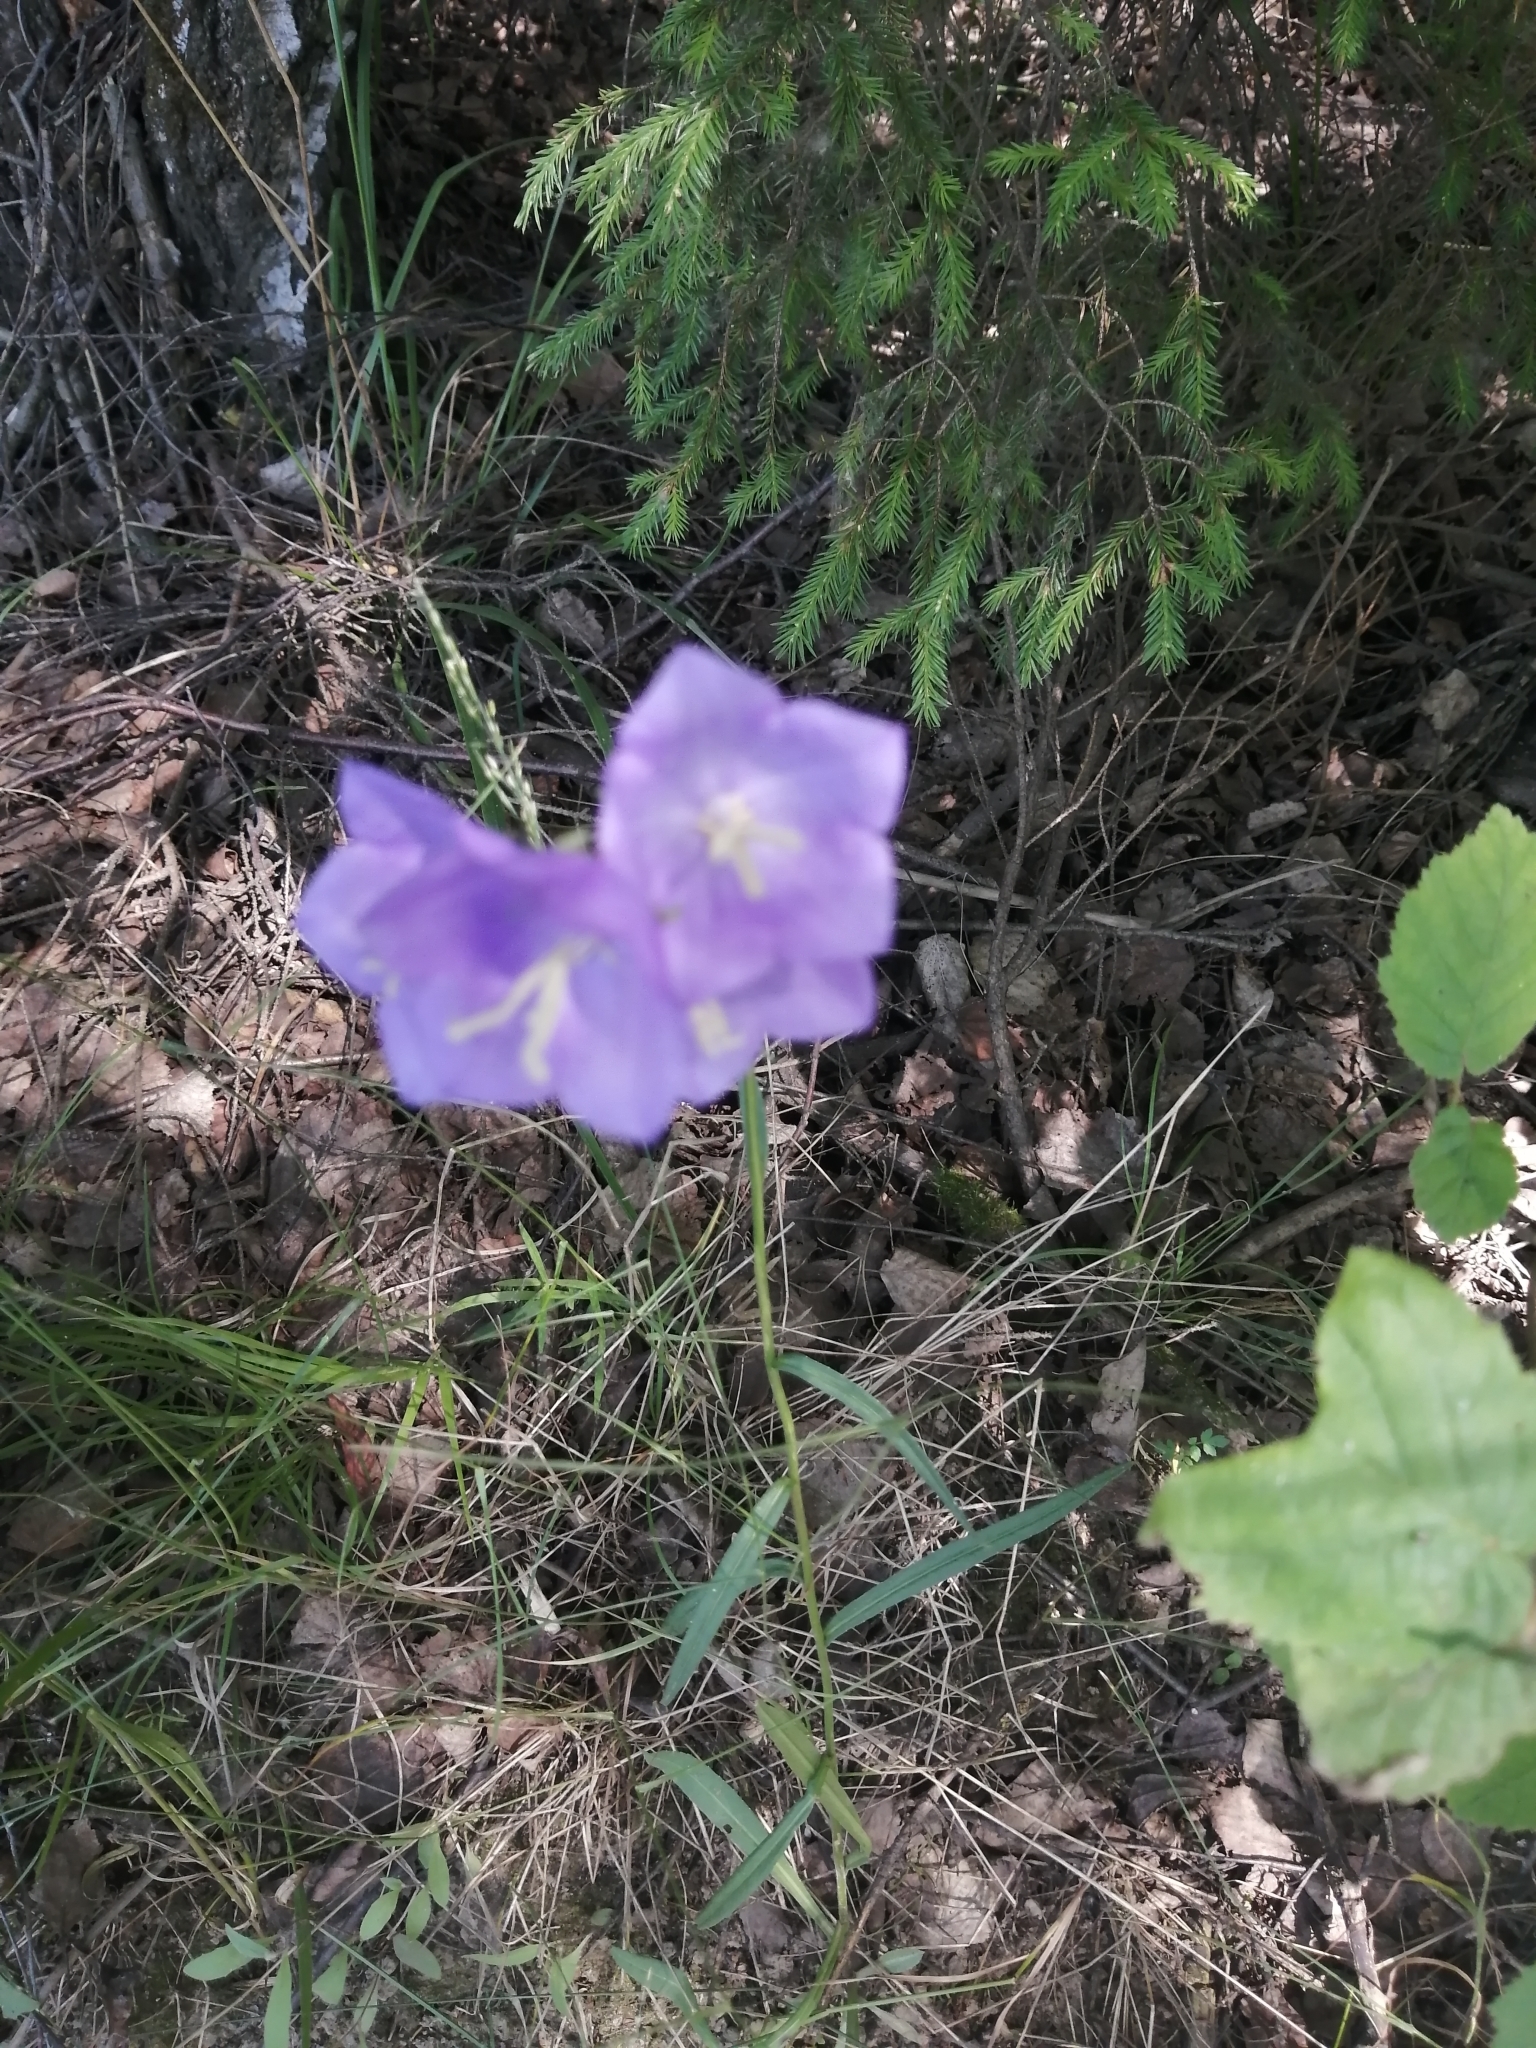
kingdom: Plantae
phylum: Tracheophyta
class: Magnoliopsida
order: Asterales
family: Campanulaceae
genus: Campanula
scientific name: Campanula persicifolia
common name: Peach-leaved bellflower
